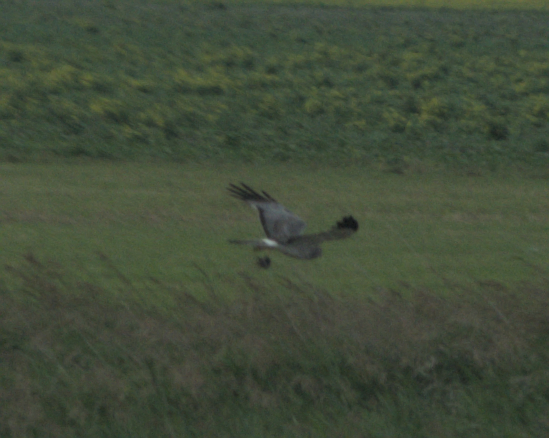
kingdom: Animalia
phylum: Chordata
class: Aves
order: Accipitriformes
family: Accipitridae
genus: Circus
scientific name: Circus cyaneus
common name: Hen harrier
